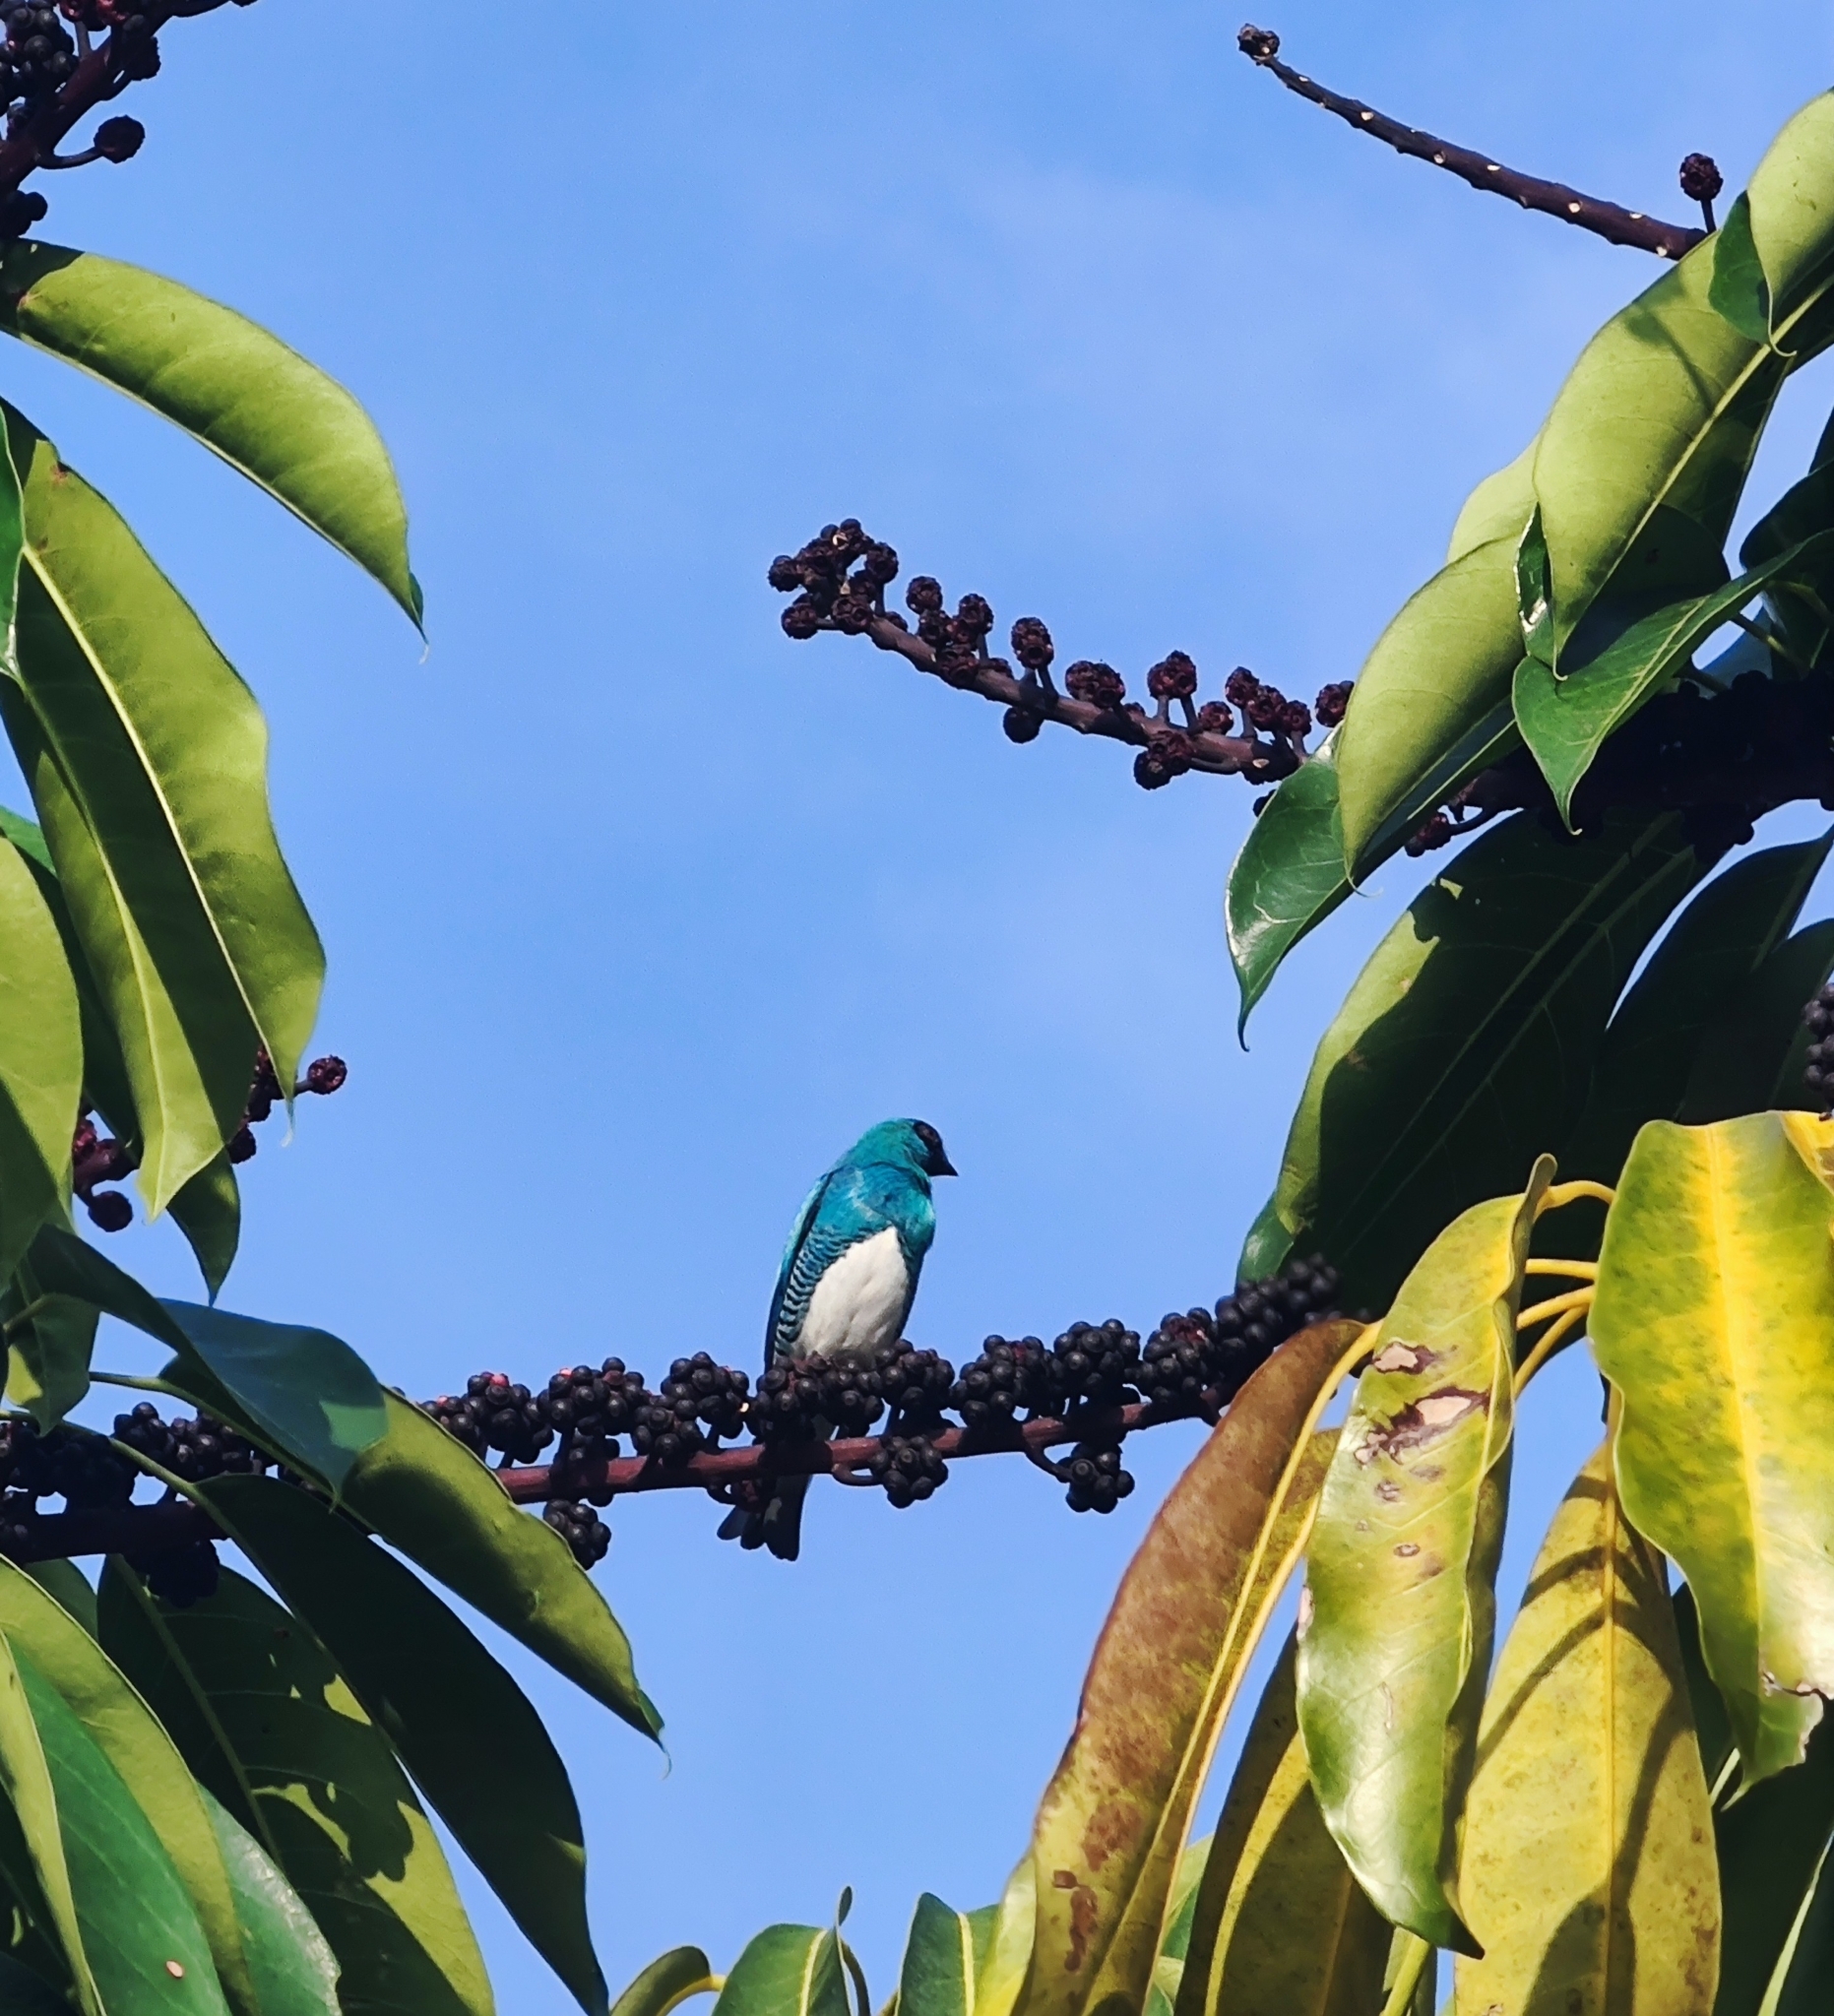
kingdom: Animalia
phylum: Chordata
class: Aves
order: Passeriformes
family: Thraupidae
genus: Tersina
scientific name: Tersina viridis
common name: Swallow tanager
